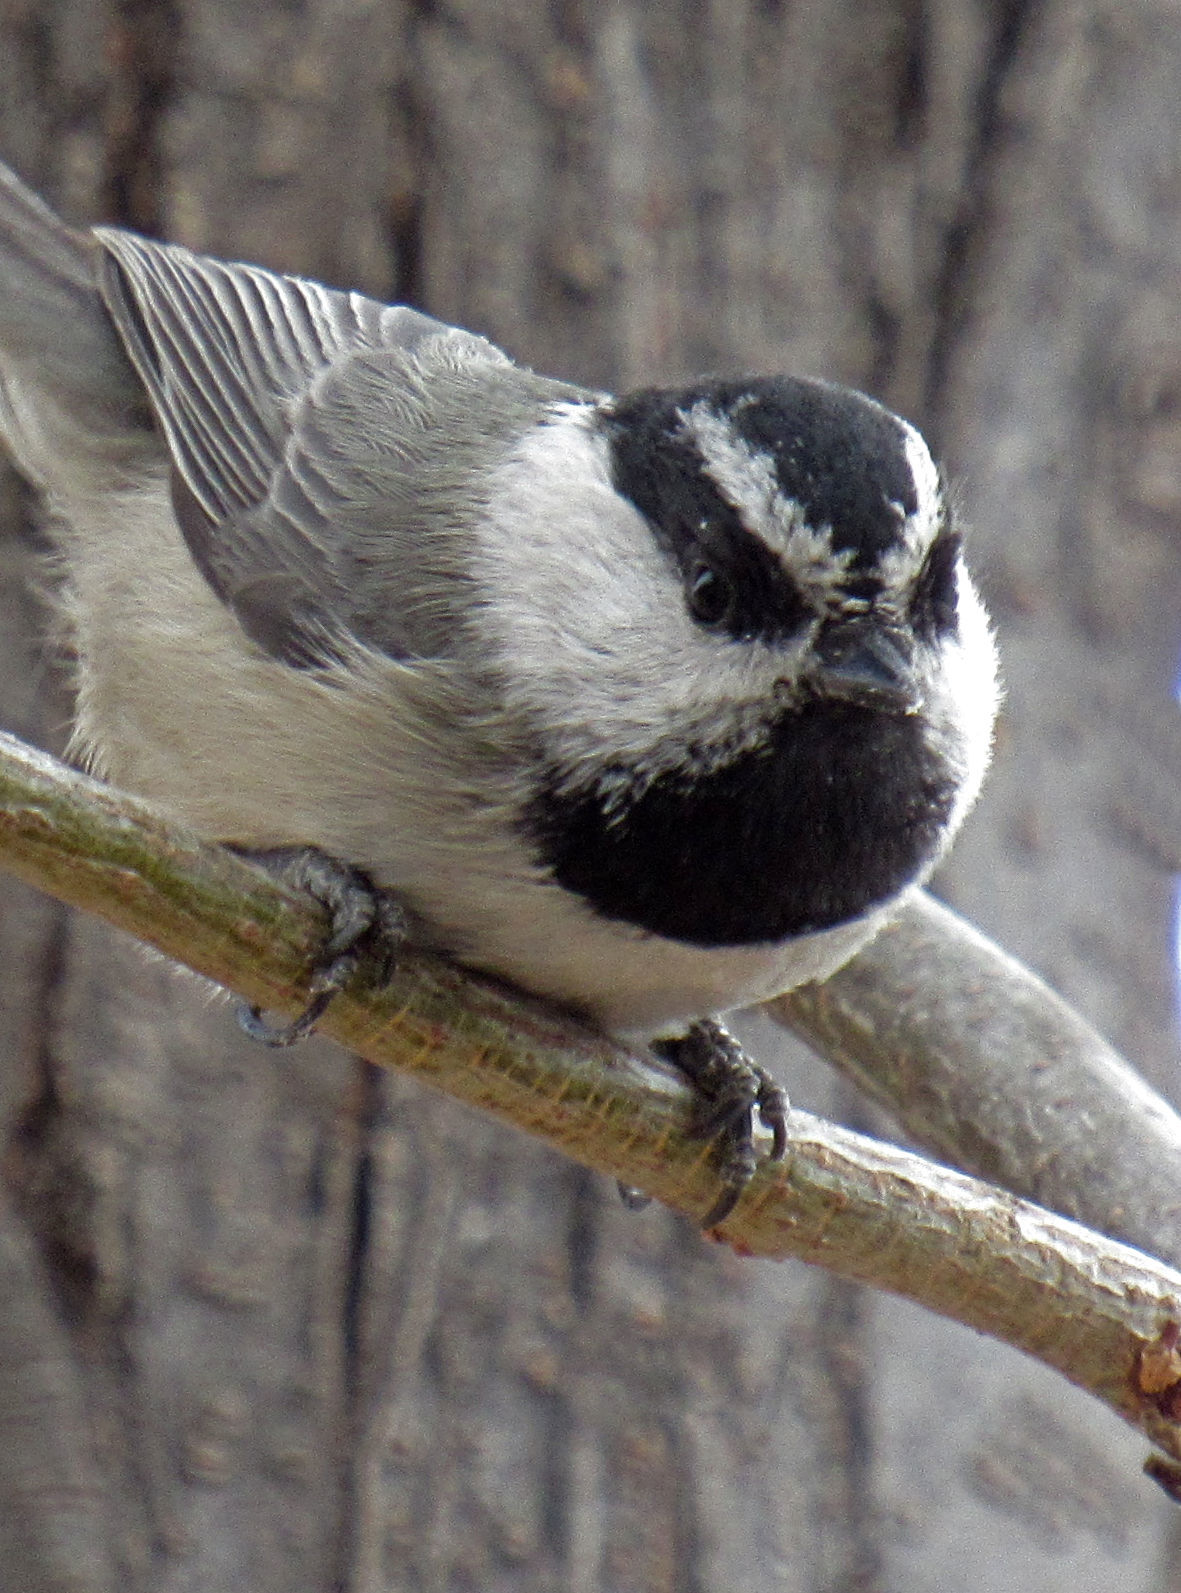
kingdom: Animalia
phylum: Chordata
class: Aves
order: Passeriformes
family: Paridae
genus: Poecile
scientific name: Poecile gambeli
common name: Mountain chickadee
